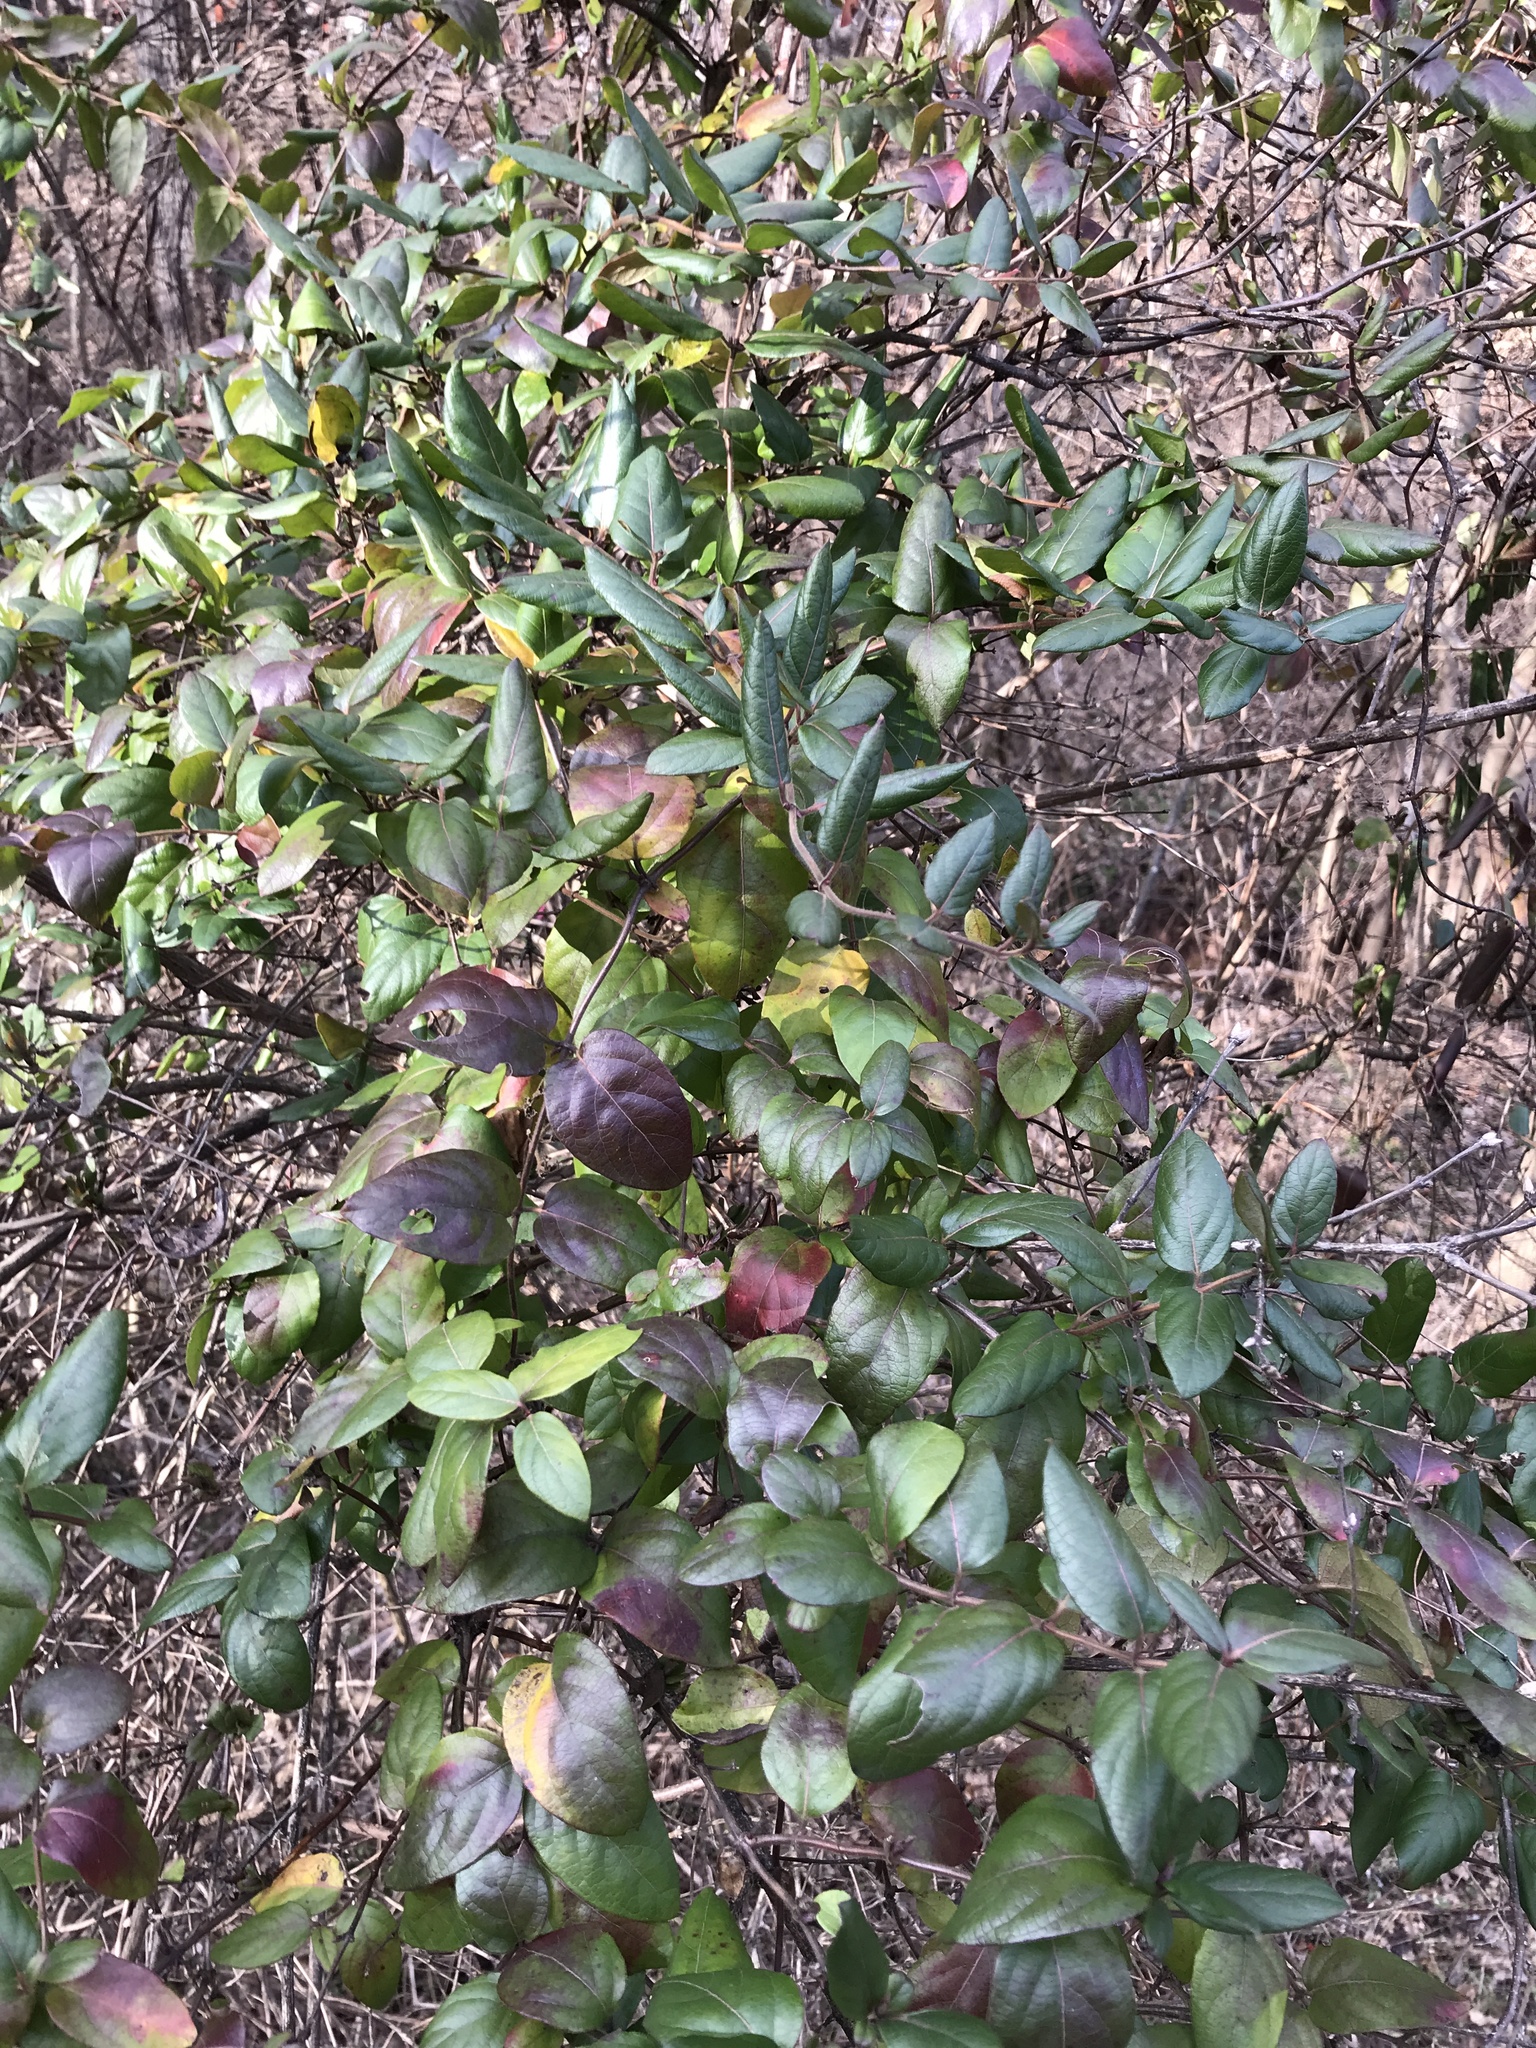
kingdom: Plantae
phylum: Tracheophyta
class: Magnoliopsida
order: Dipsacales
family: Caprifoliaceae
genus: Lonicera
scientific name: Lonicera japonica
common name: Japanese honeysuckle
